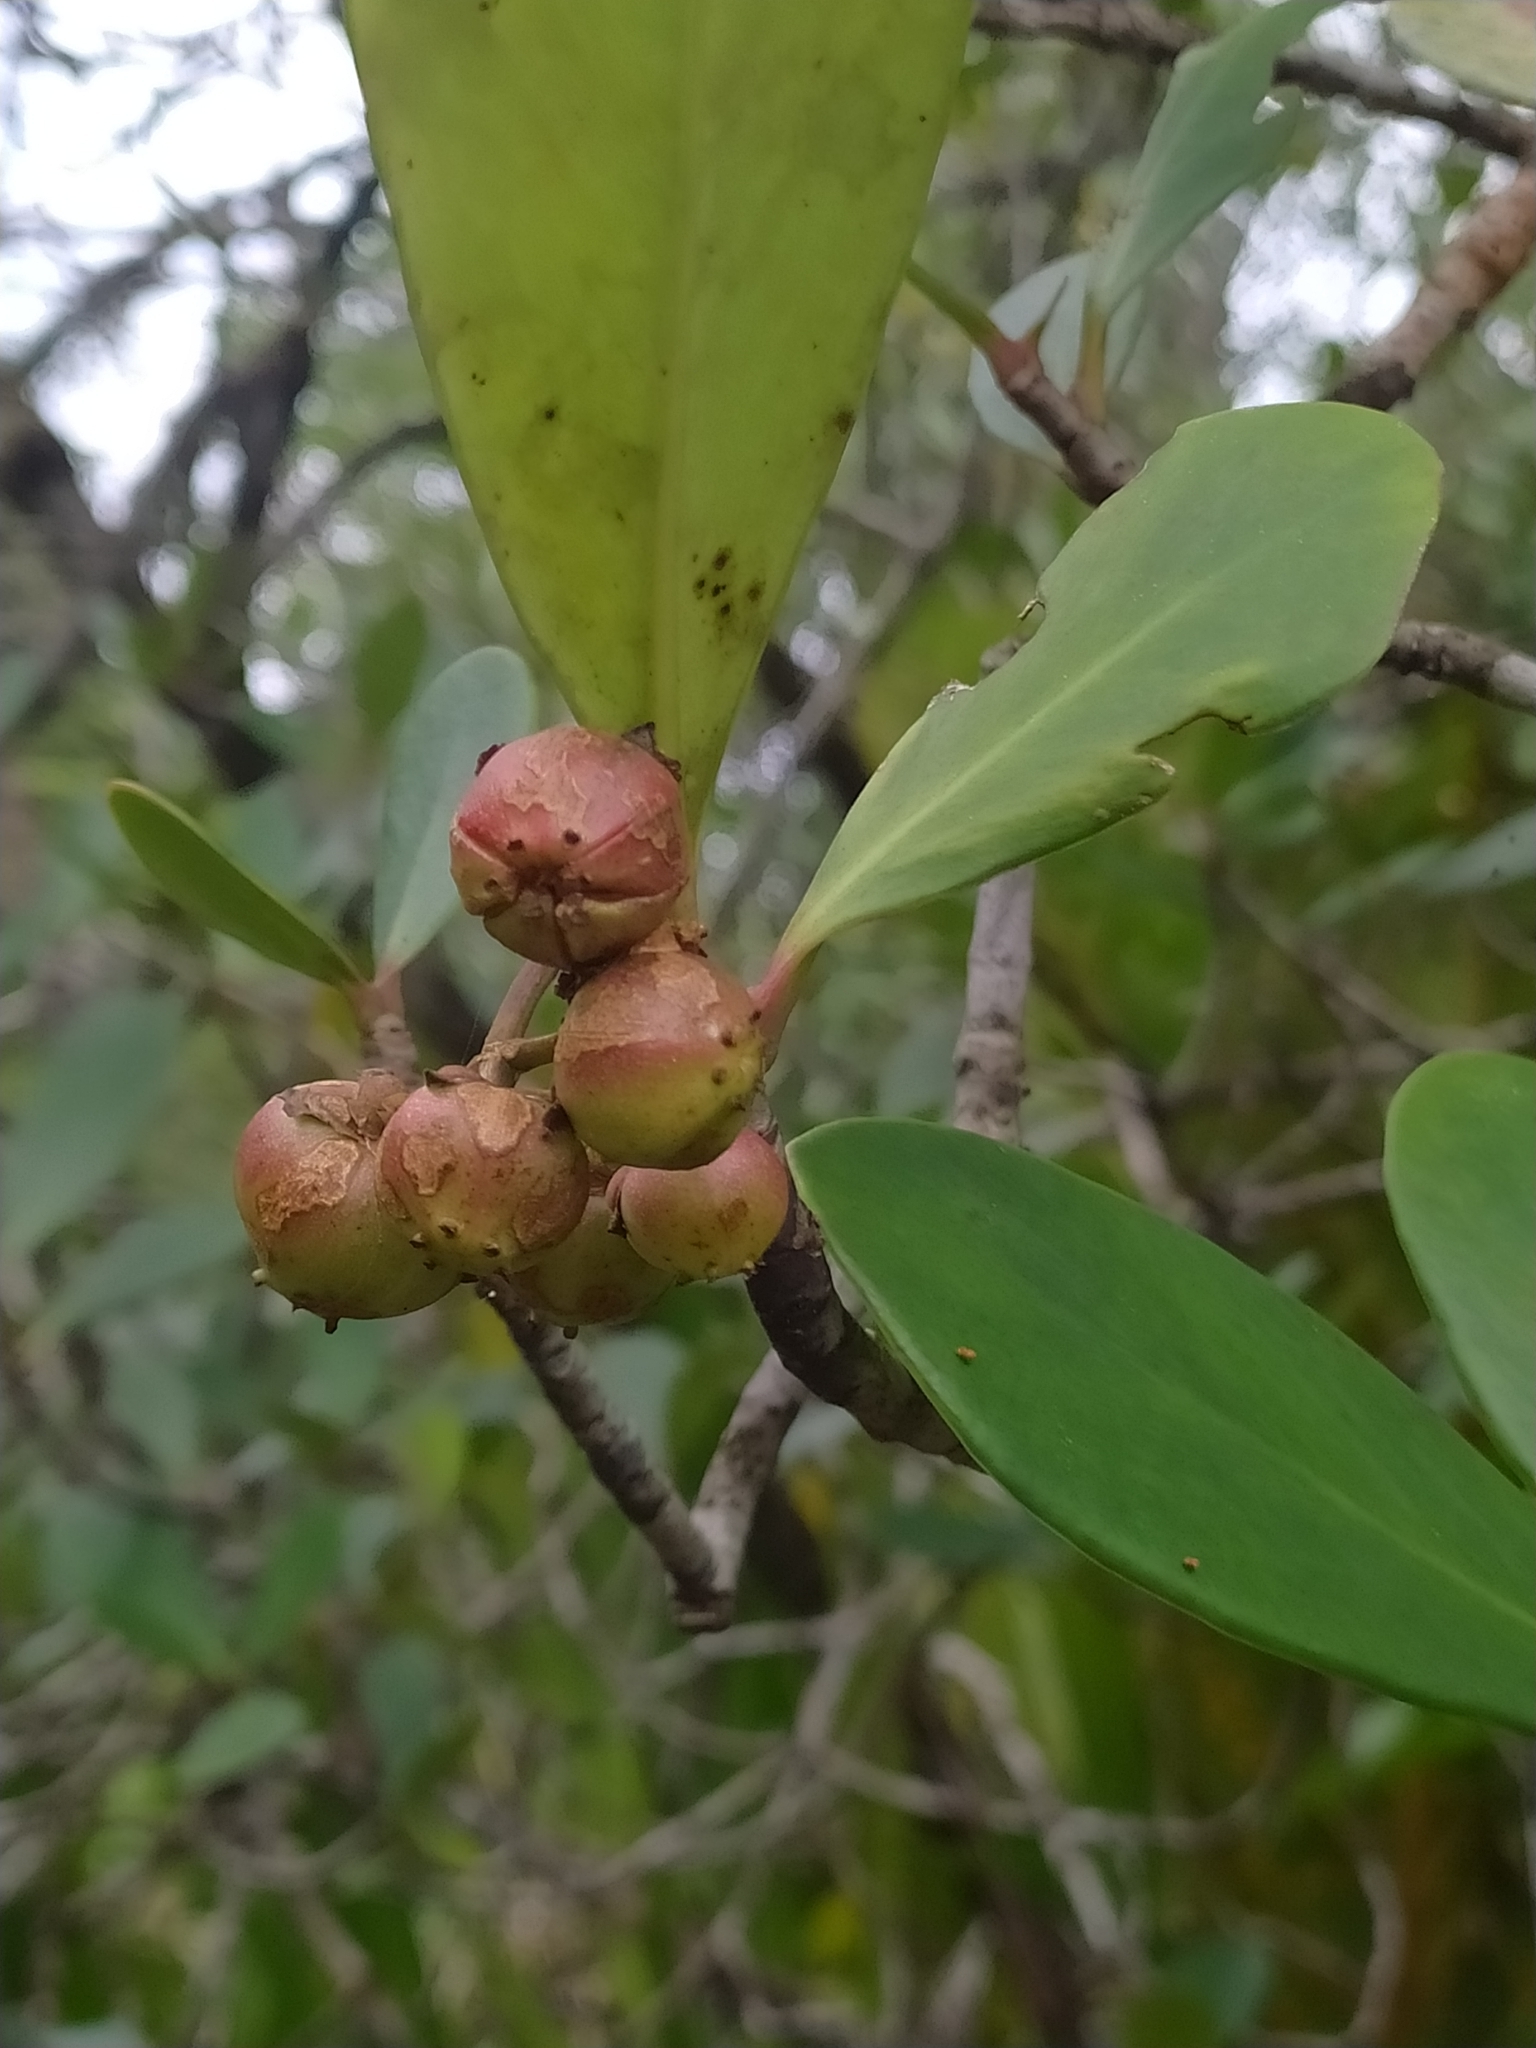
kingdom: Plantae
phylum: Tracheophyta
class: Magnoliopsida
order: Malpighiales
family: Clusiaceae
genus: Clusia
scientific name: Clusia blattophila
